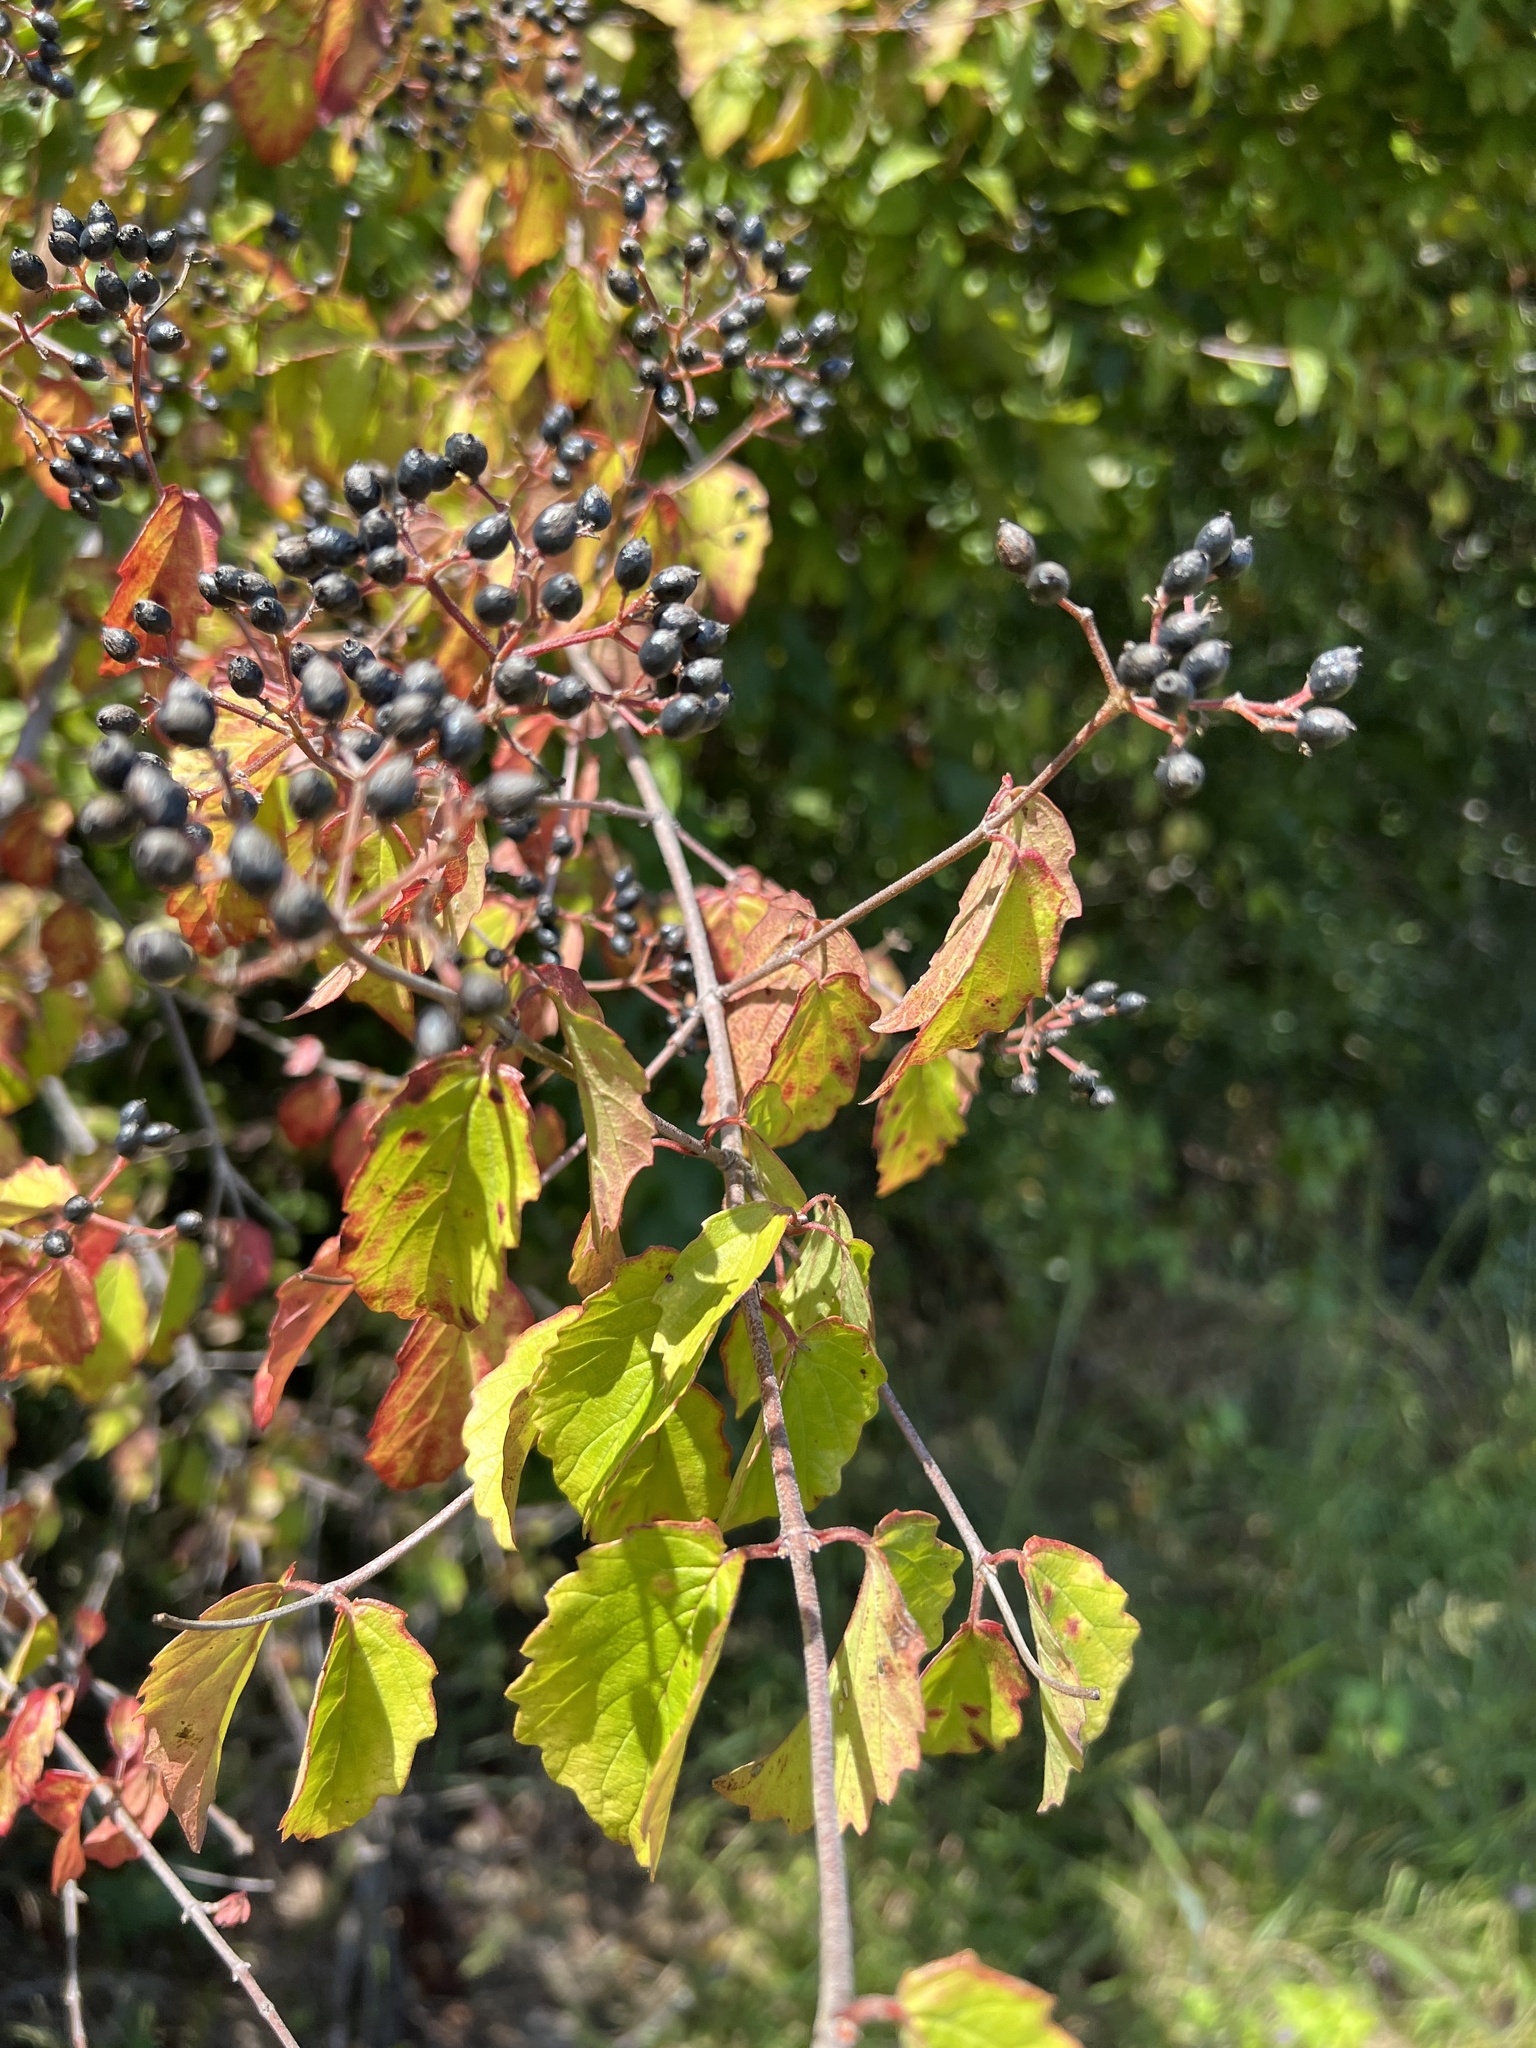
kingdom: Plantae
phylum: Tracheophyta
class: Magnoliopsida
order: Dipsacales
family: Viburnaceae
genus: Viburnum
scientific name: Viburnum scabrellum
